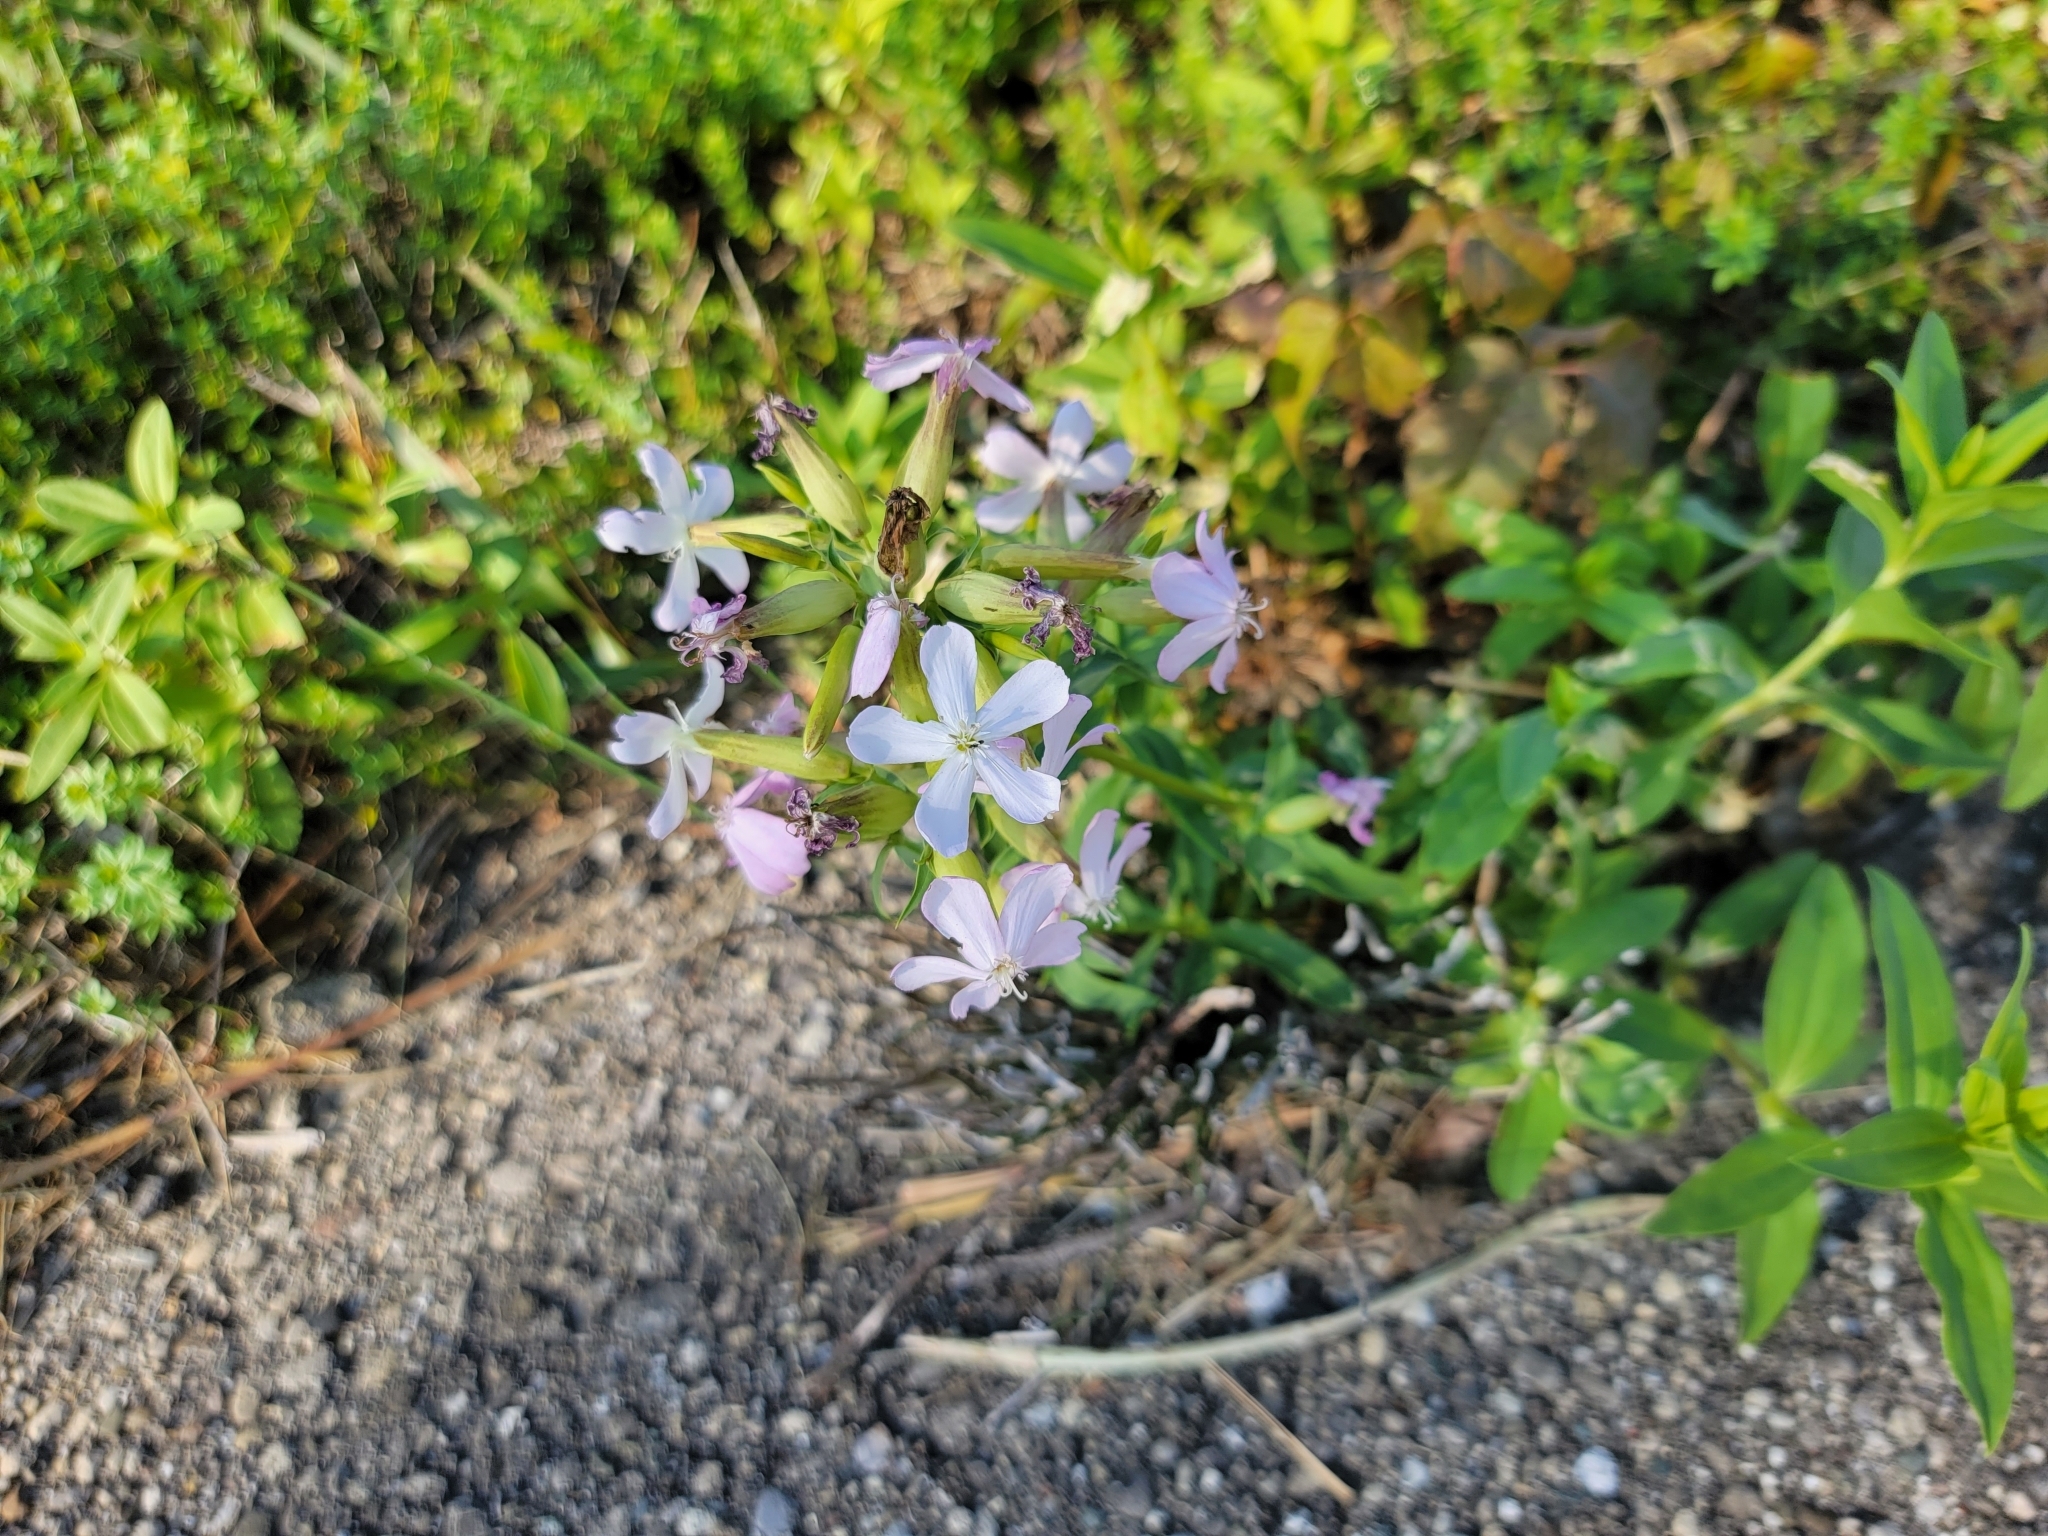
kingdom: Plantae
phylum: Tracheophyta
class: Magnoliopsida
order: Caryophyllales
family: Caryophyllaceae
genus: Saponaria
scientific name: Saponaria officinalis
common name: Soapwort
